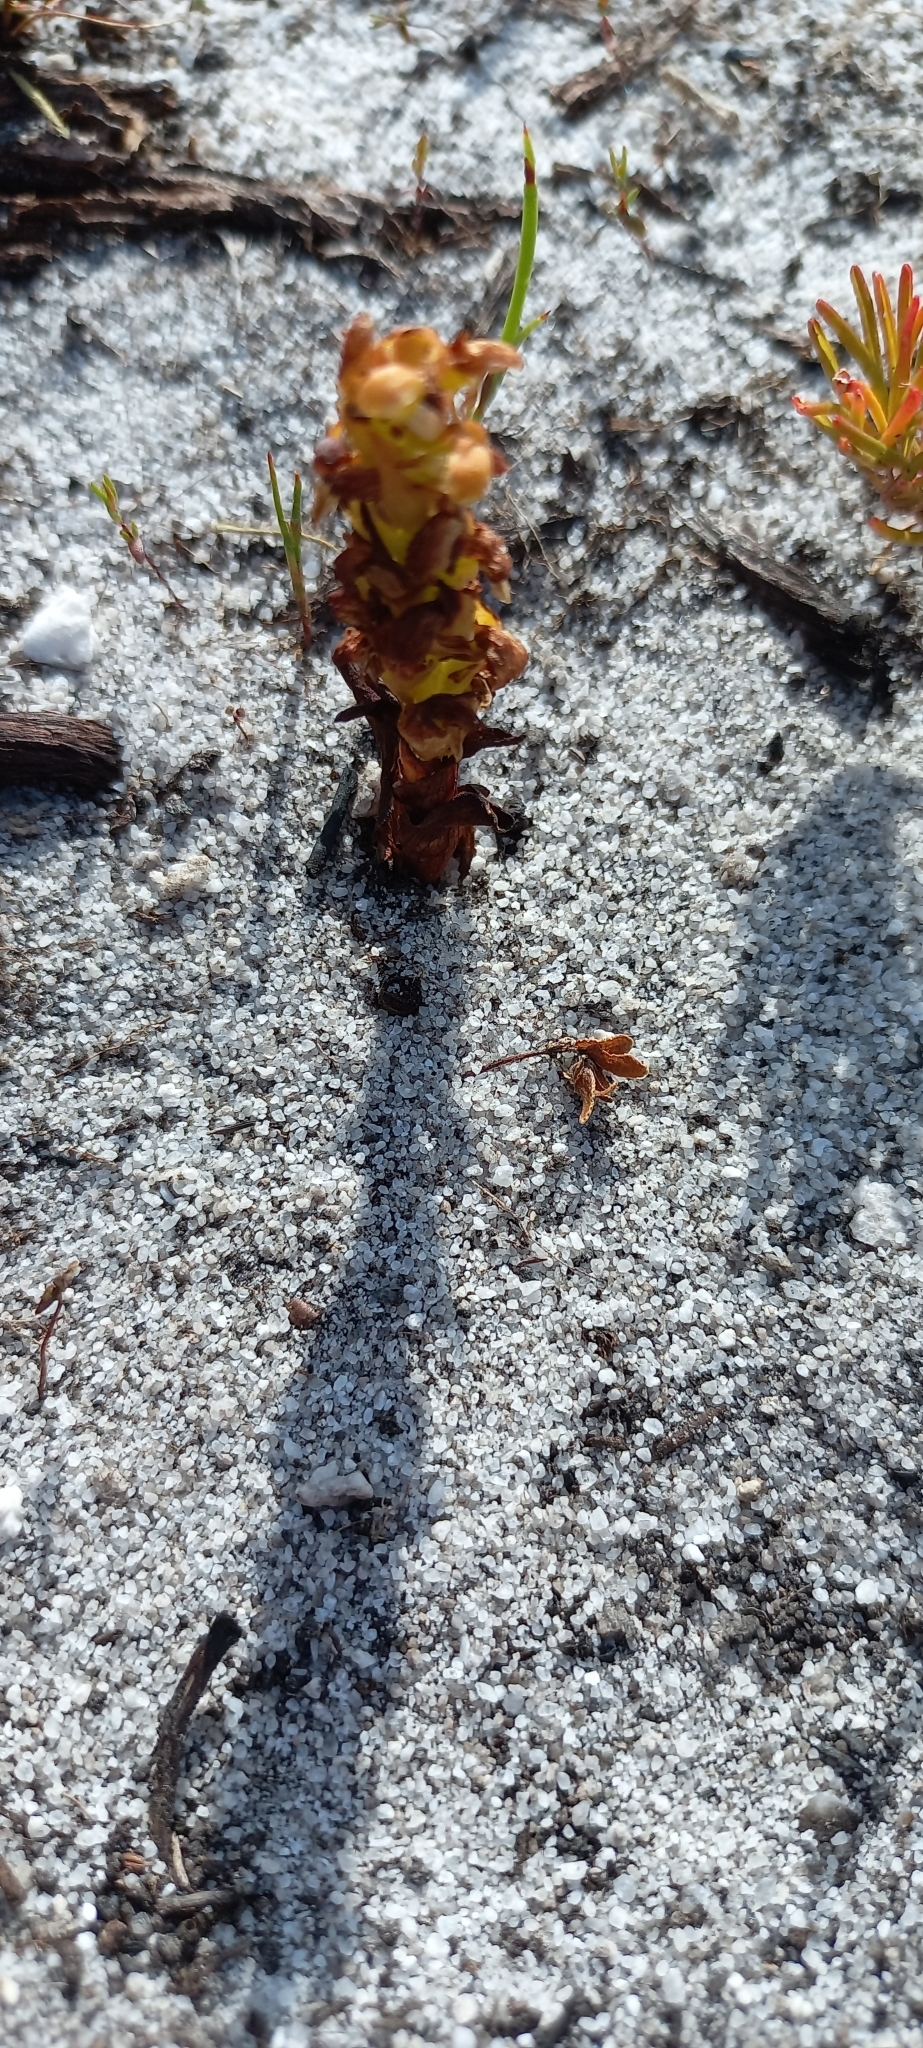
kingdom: Plantae
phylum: Tracheophyta
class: Liliopsida
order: Asparagales
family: Orchidaceae
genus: Disa
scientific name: Disa pygmaea
